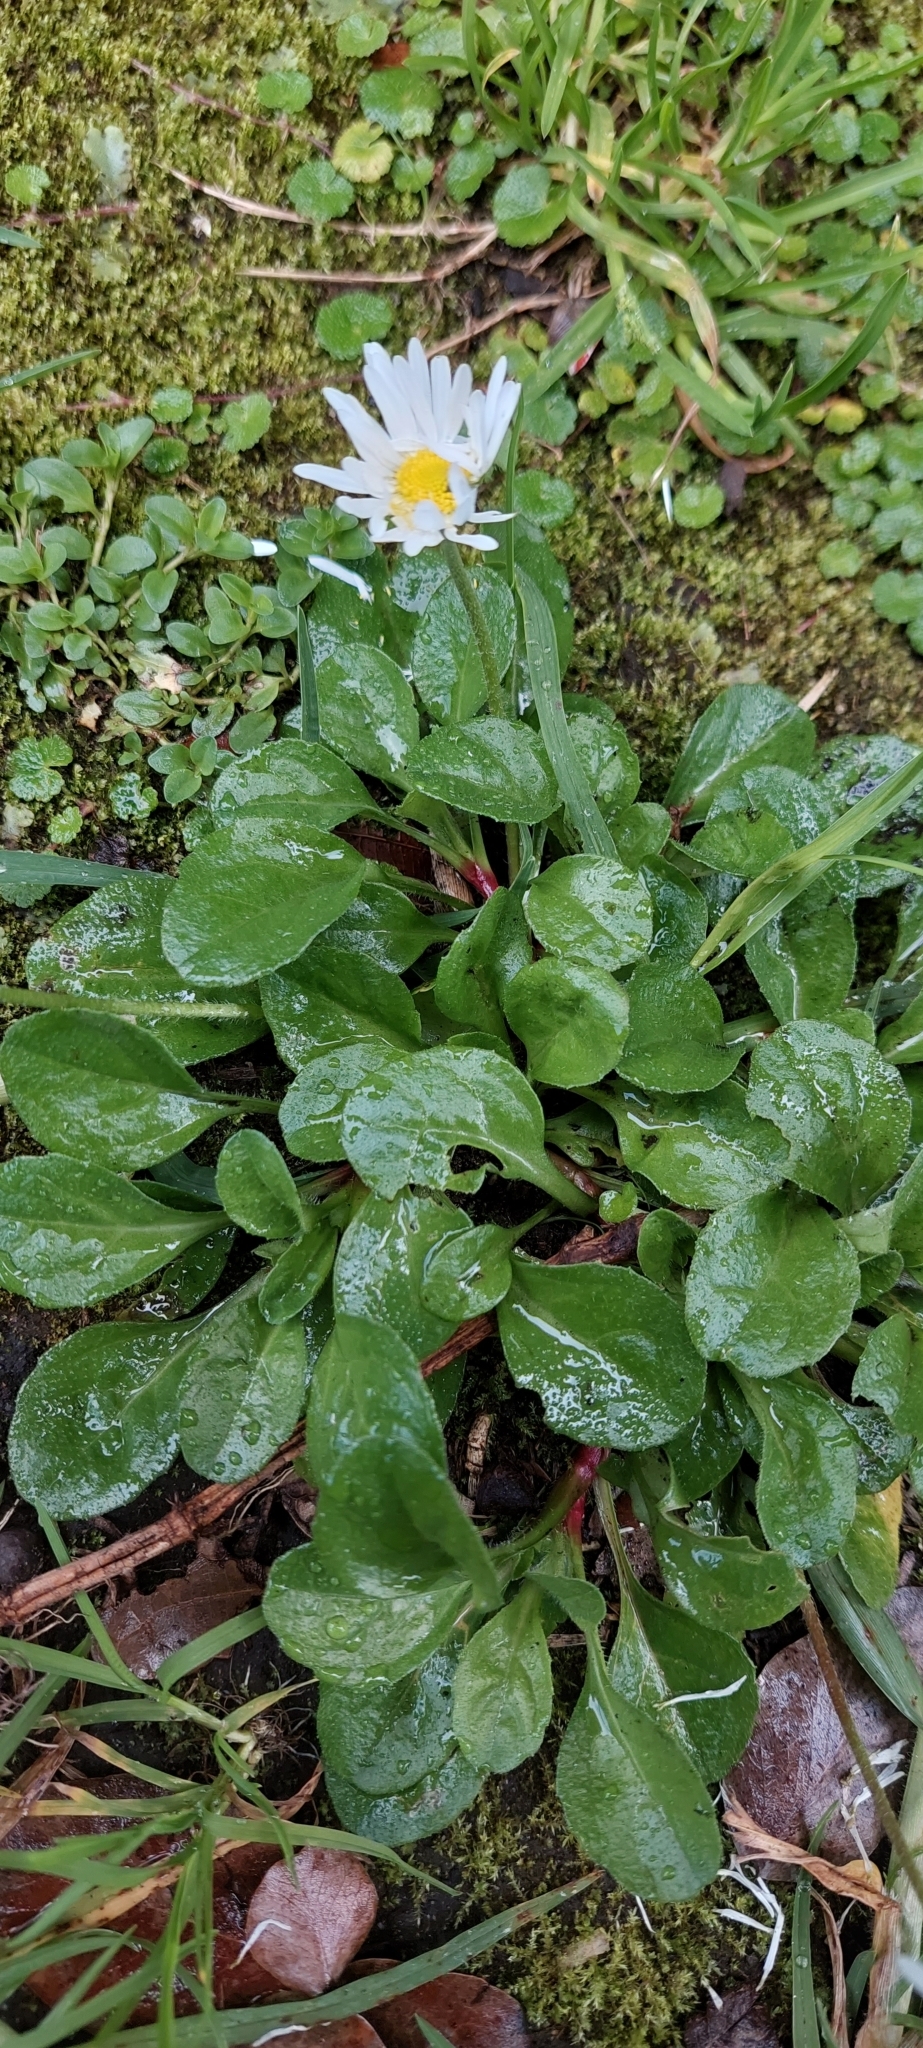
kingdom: Plantae
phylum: Tracheophyta
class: Magnoliopsida
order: Asterales
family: Asteraceae
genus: Bellis
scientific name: Bellis perennis
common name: Lawndaisy
